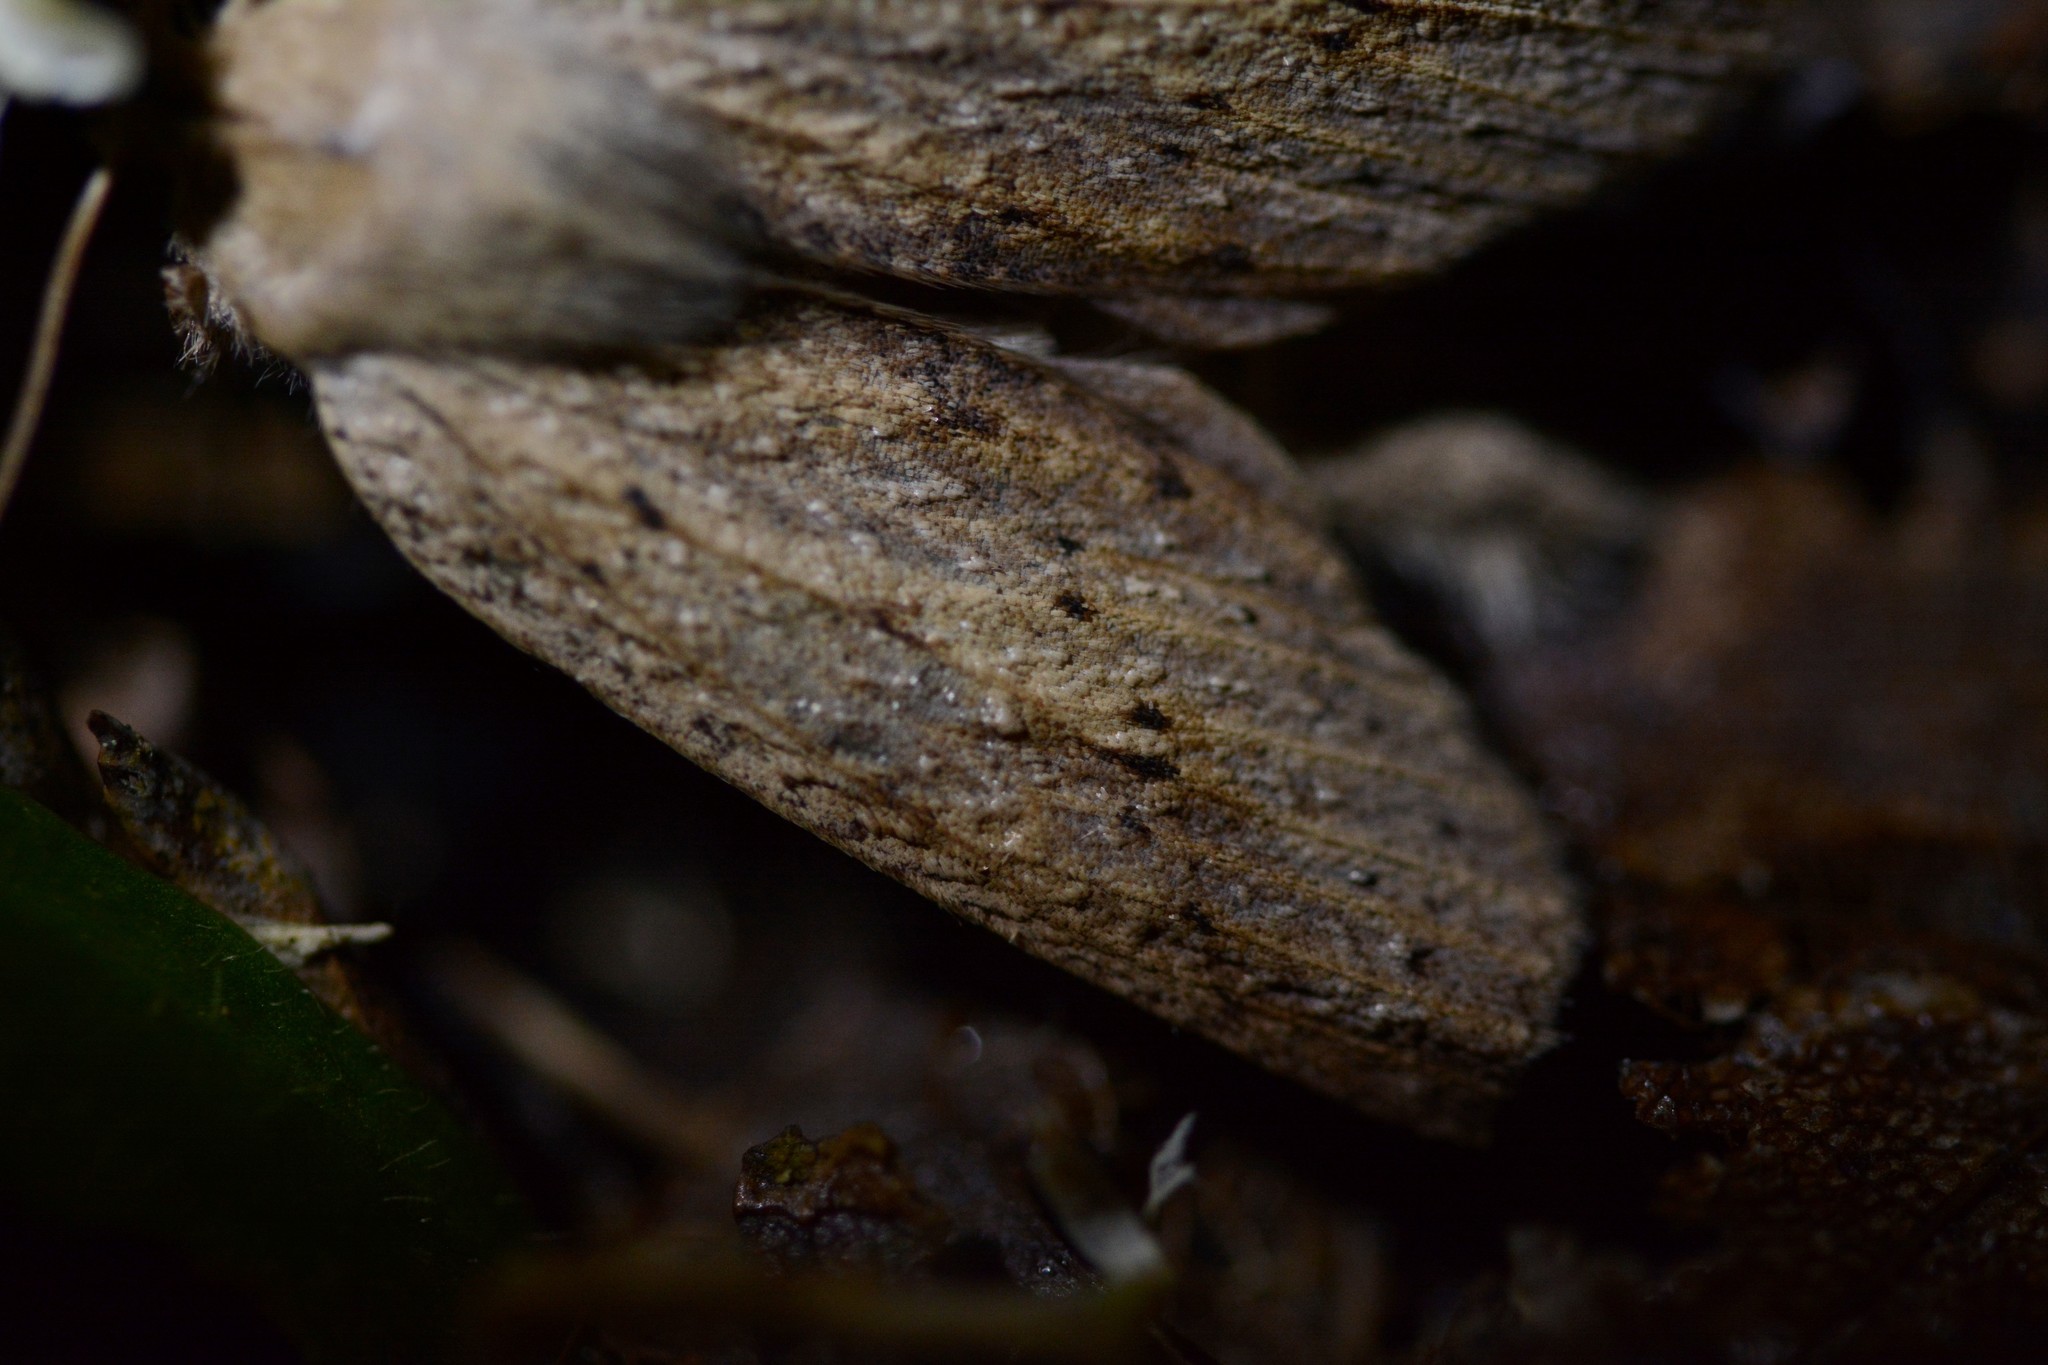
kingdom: Animalia
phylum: Arthropoda
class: Insecta
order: Lepidoptera
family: Geometridae
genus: Declana
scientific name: Declana leptomera
